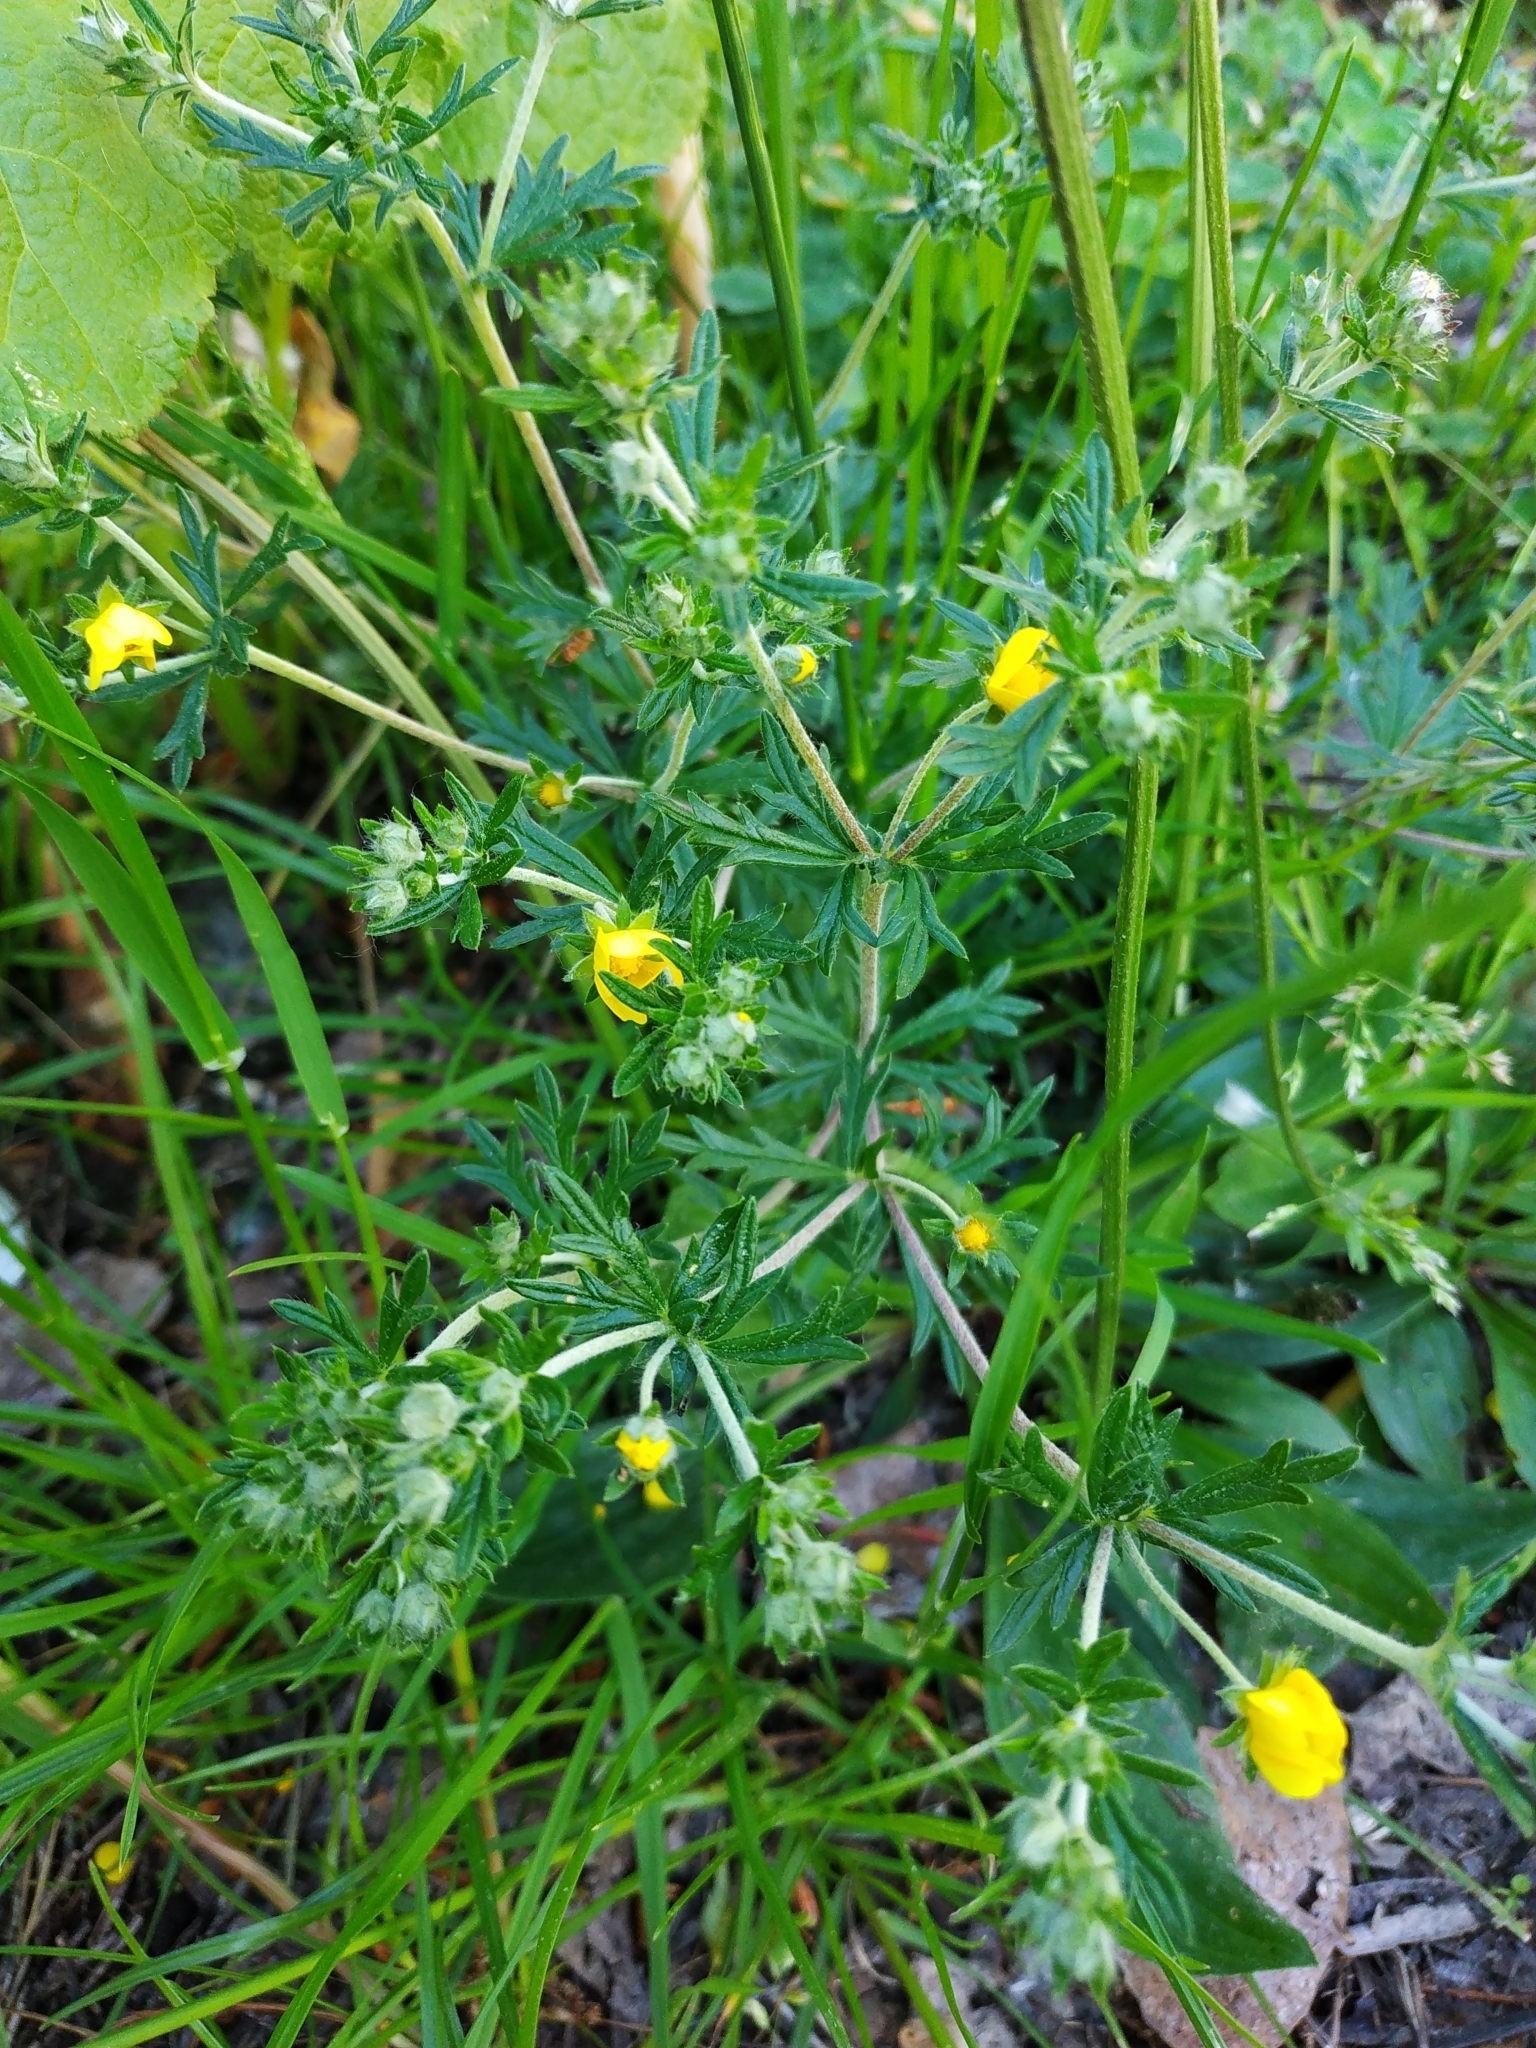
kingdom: Plantae
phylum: Tracheophyta
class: Magnoliopsida
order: Rosales
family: Rosaceae
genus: Potentilla
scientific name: Potentilla argentea
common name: Hoary cinquefoil
